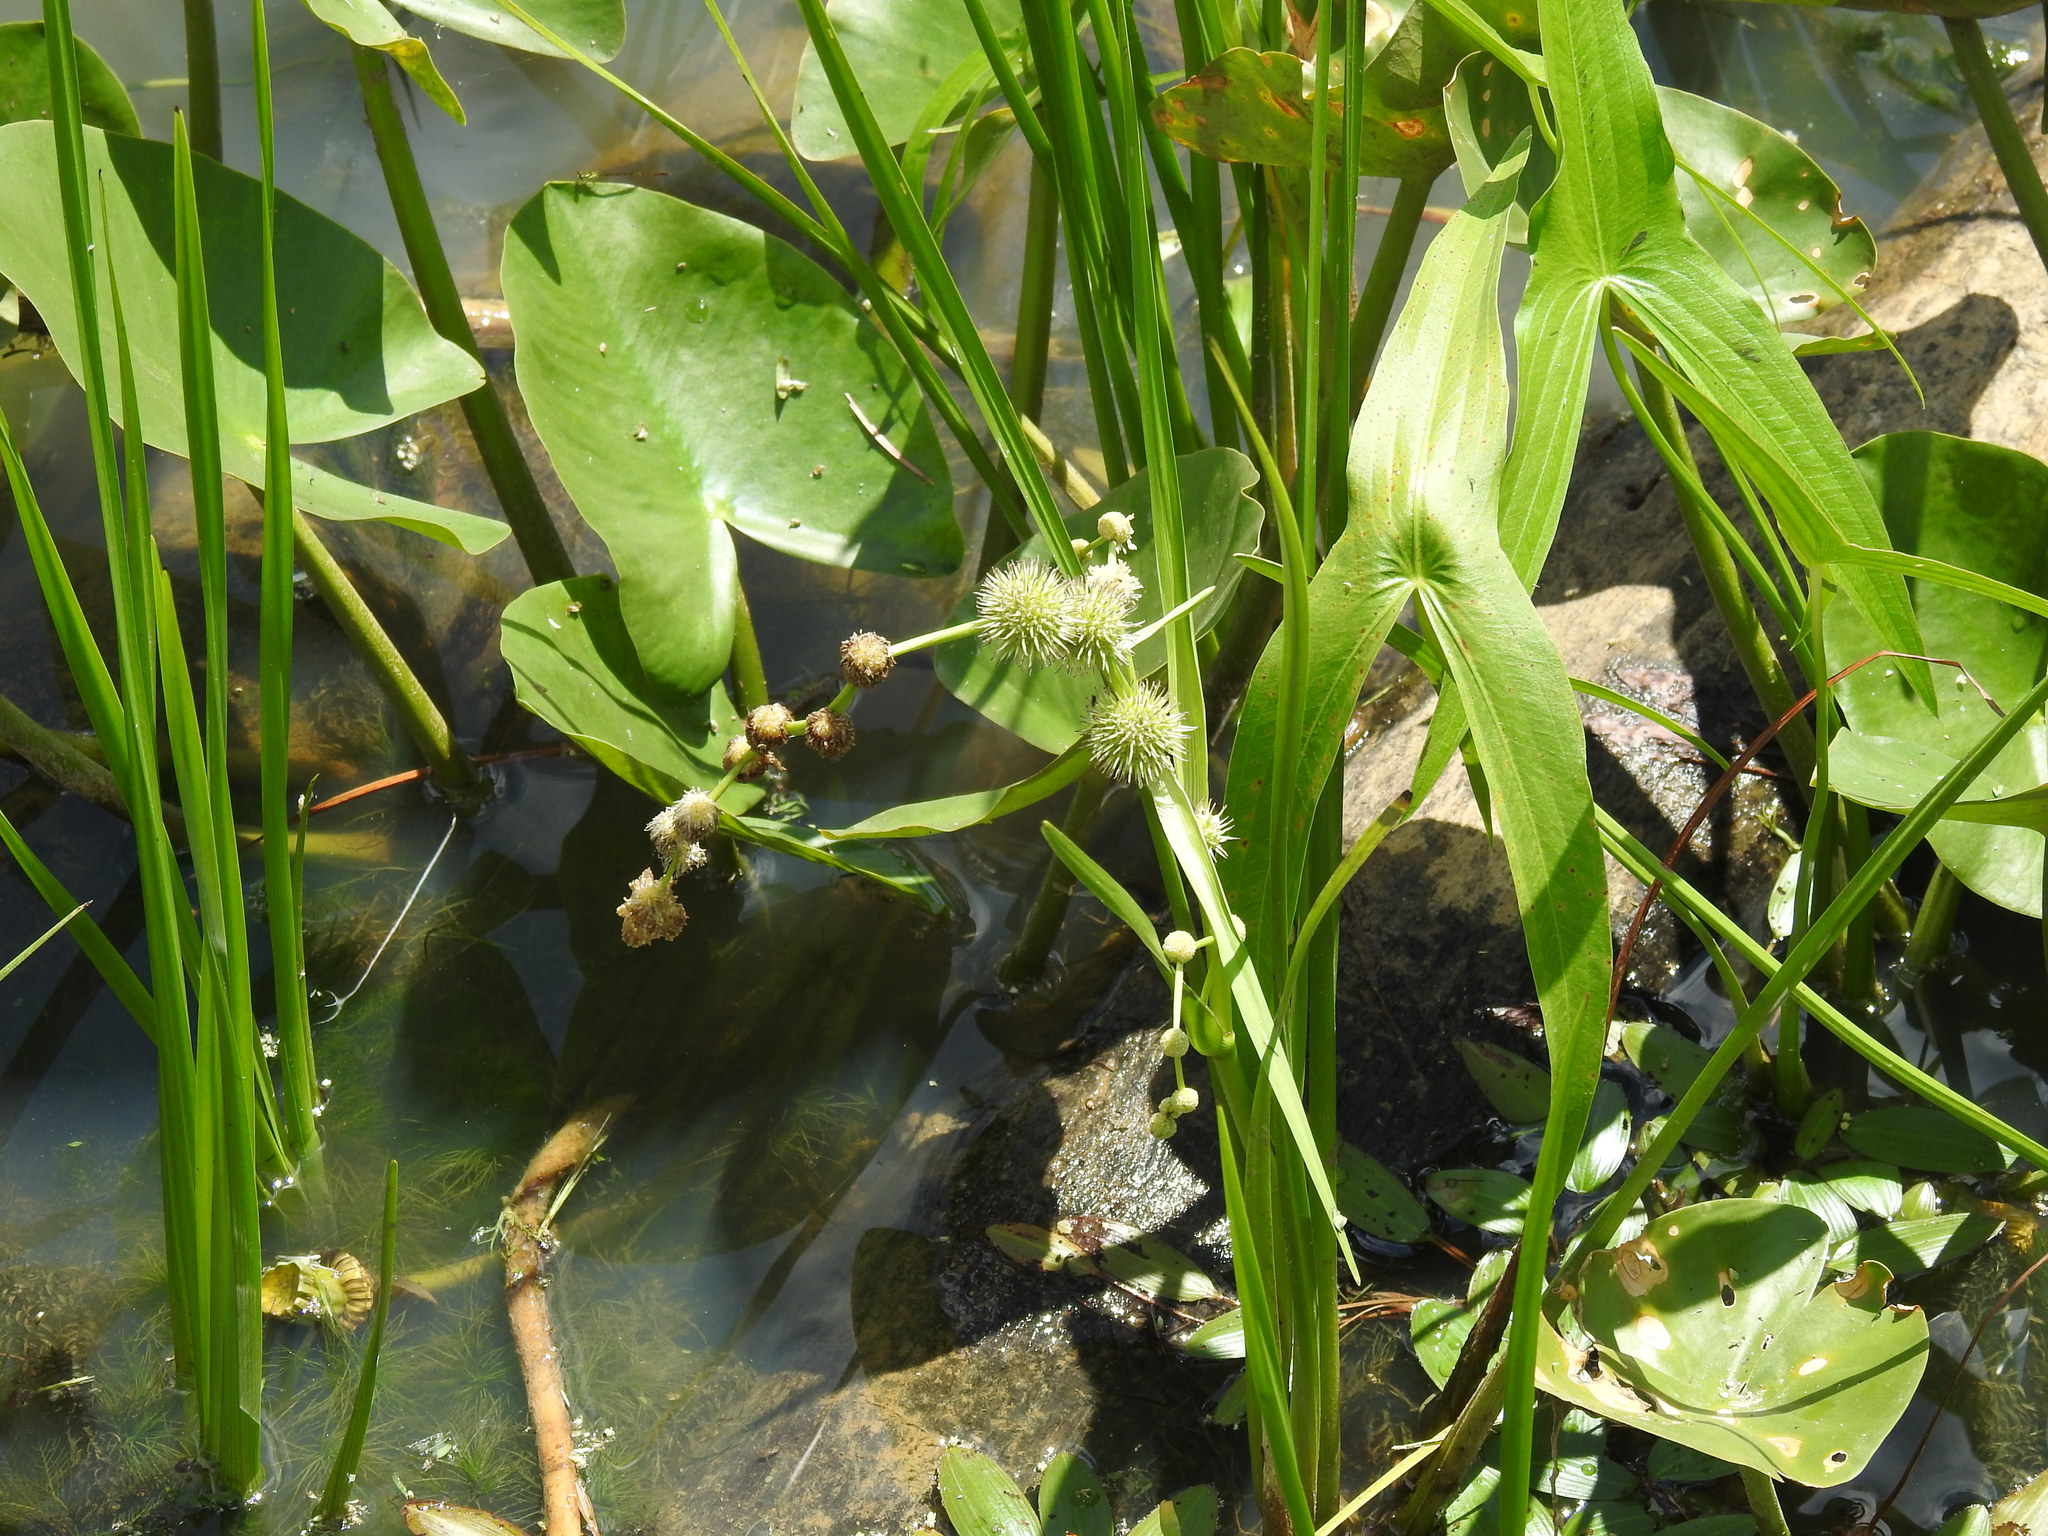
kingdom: Plantae
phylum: Tracheophyta
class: Liliopsida
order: Poales
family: Typhaceae
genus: Sparganium
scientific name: Sparganium americanum
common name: American burreed
